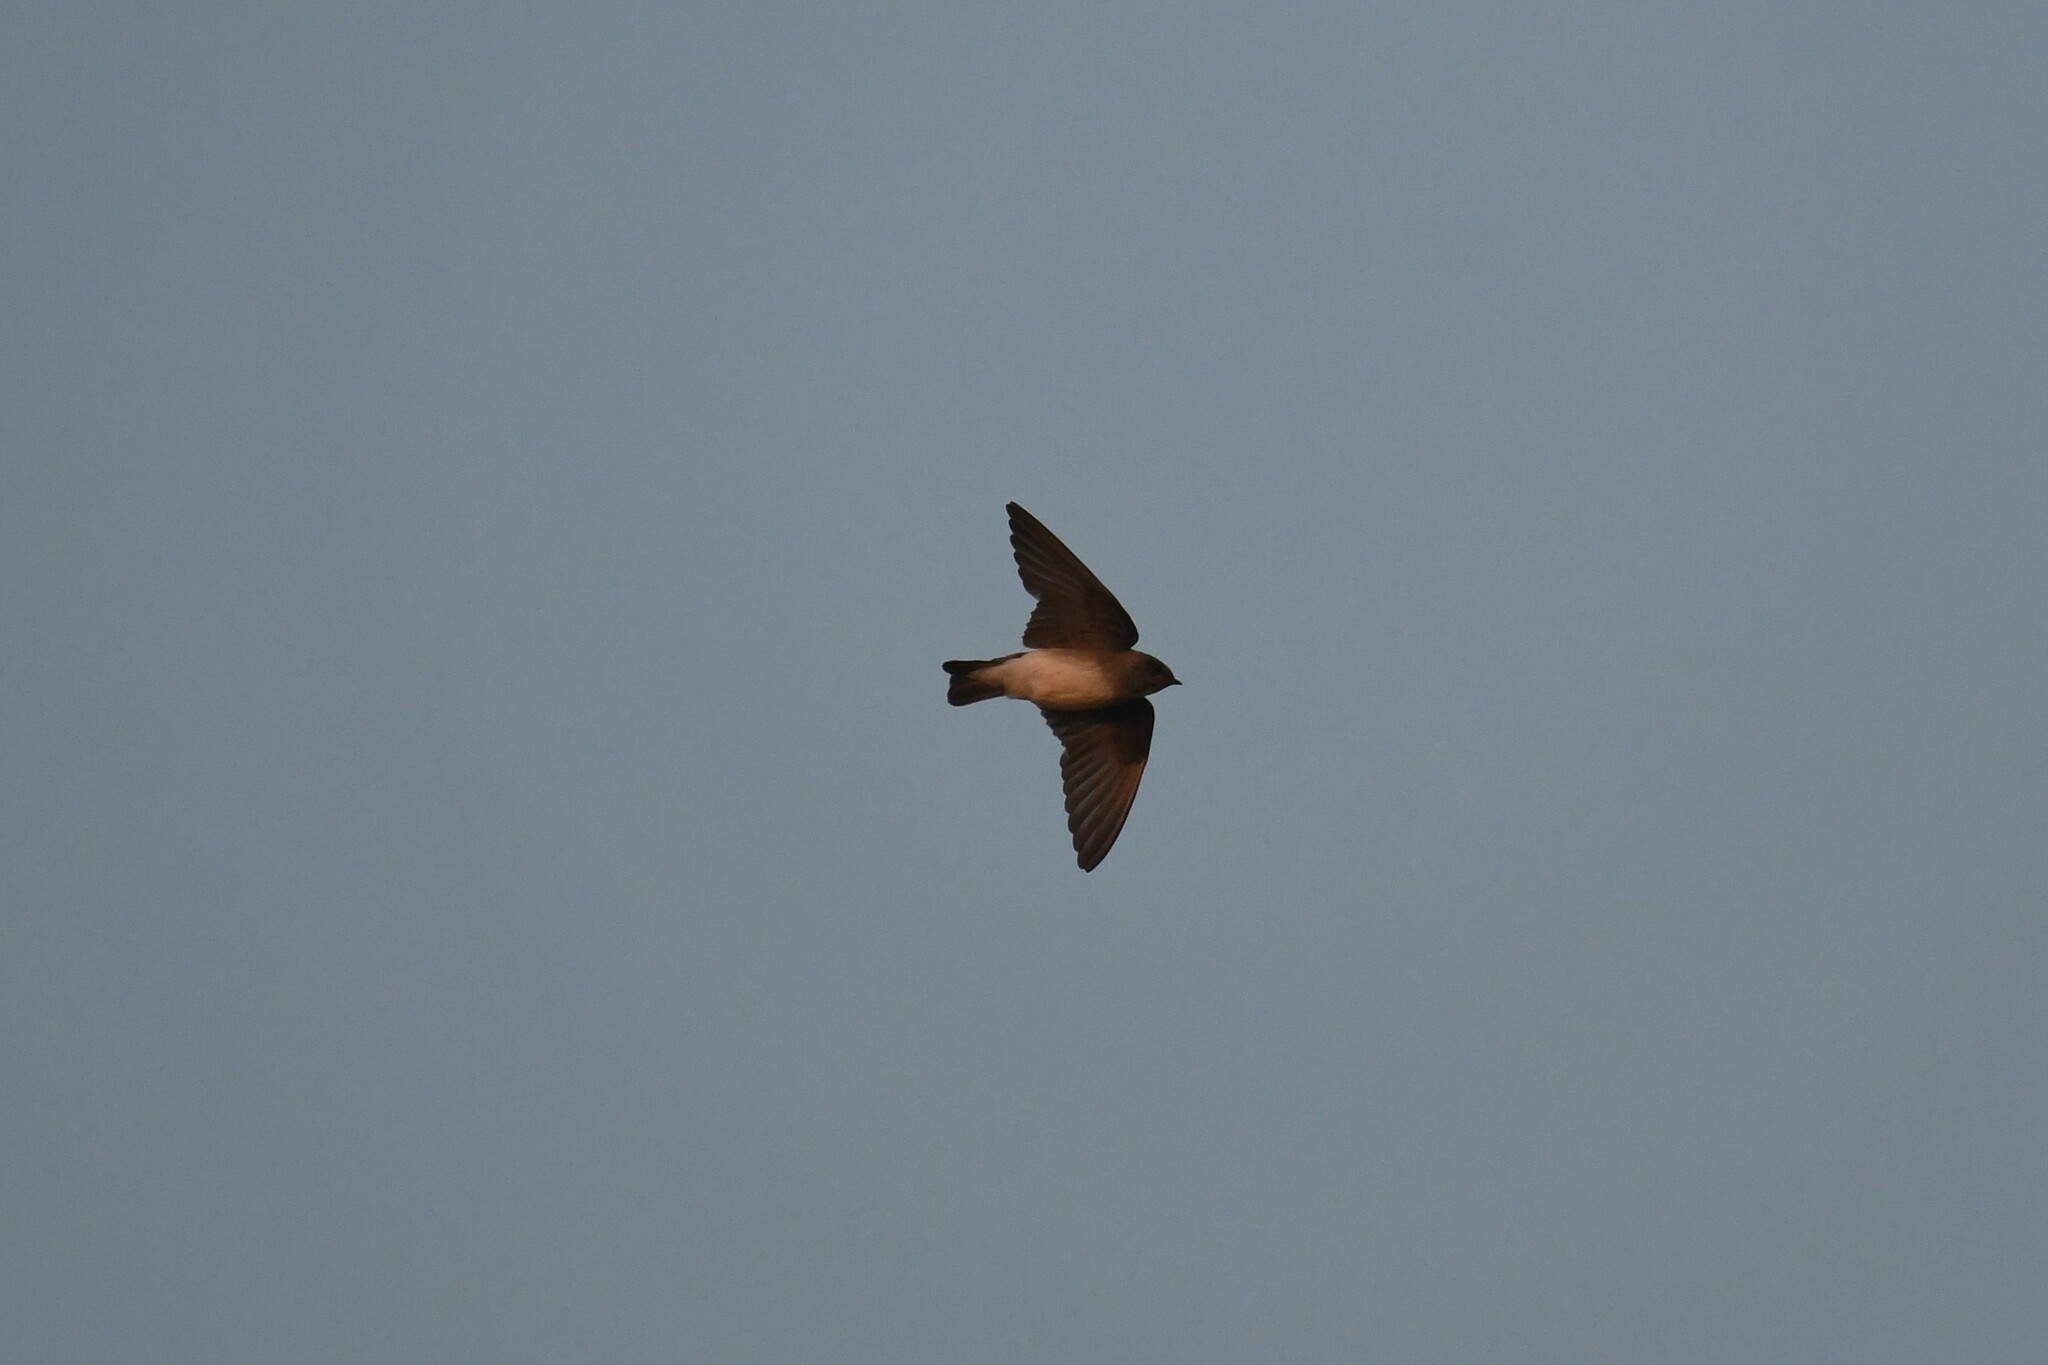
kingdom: Animalia
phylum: Chordata
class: Aves
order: Passeriformes
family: Hirundinidae
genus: Stelgidopteryx
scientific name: Stelgidopteryx serripennis
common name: Northern rough-winged swallow
